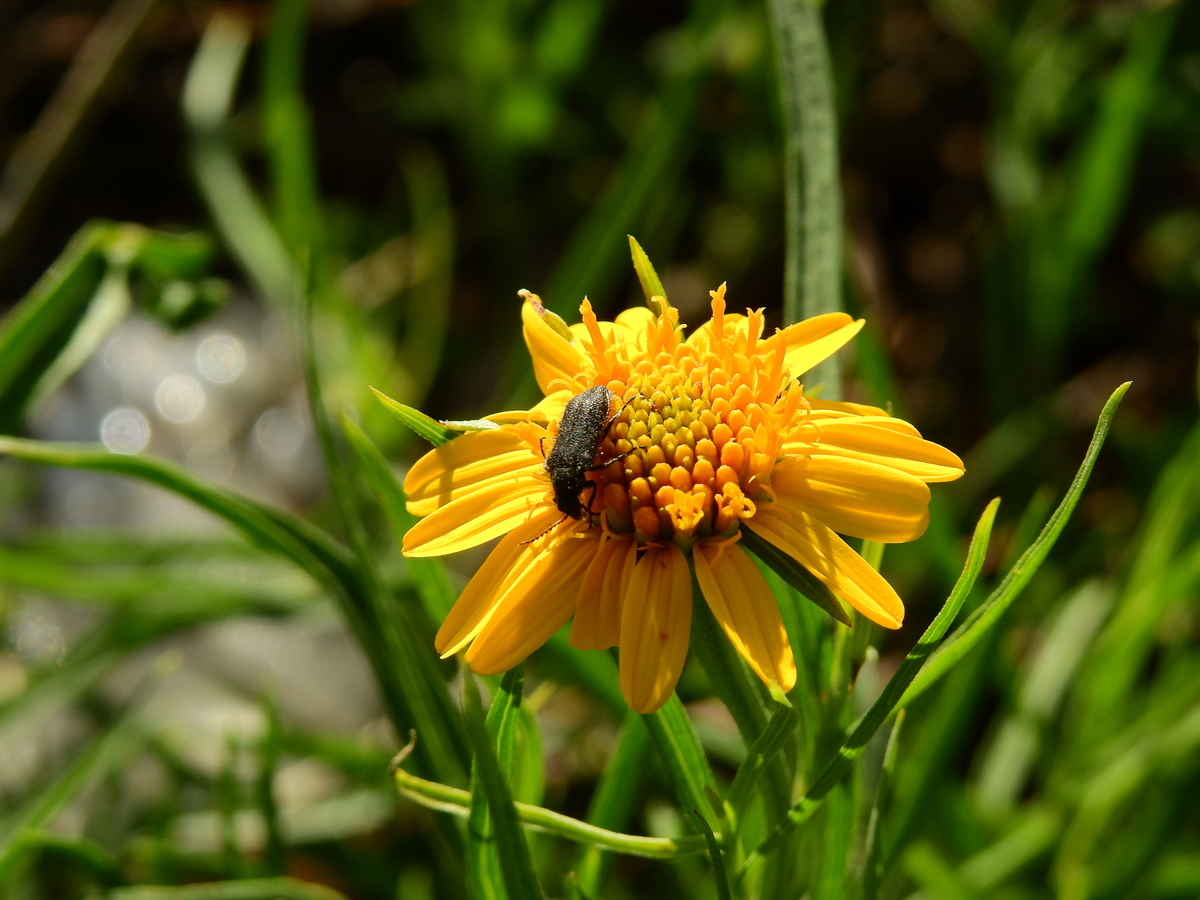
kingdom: Animalia
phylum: Arthropoda
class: Insecta
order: Coleoptera
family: Melyridae
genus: Astylus
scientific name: Astylus
